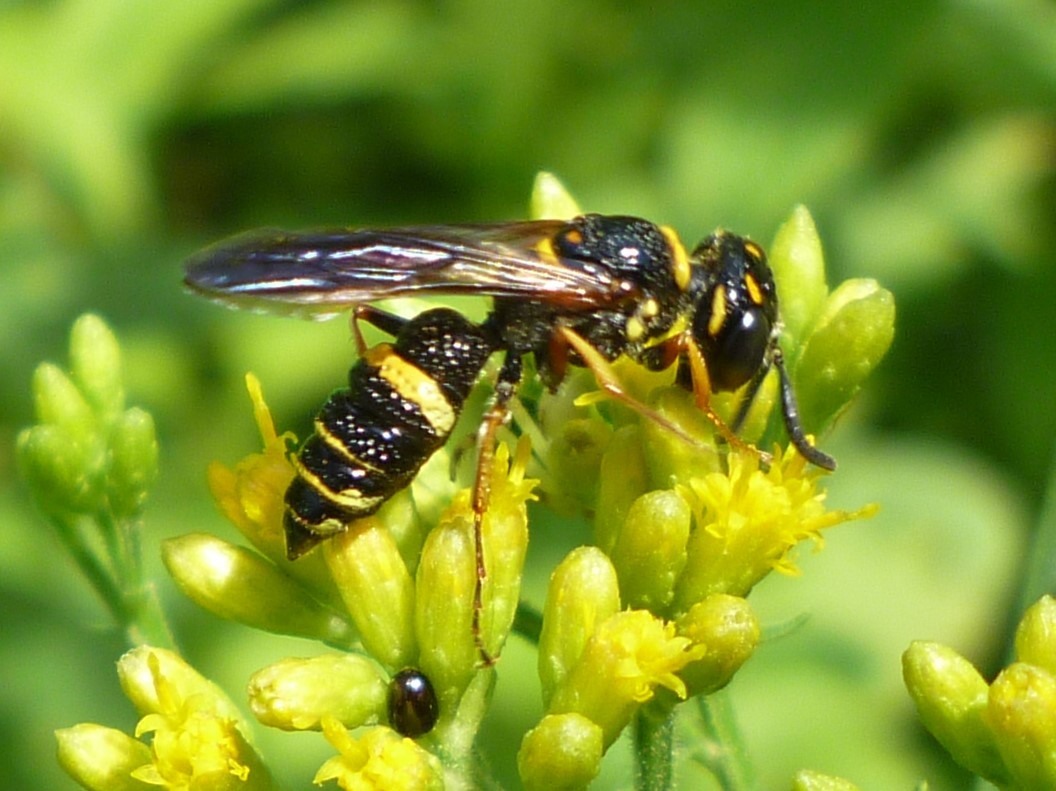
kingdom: Animalia
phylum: Arthropoda
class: Insecta
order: Hymenoptera
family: Crabronidae
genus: Philanthus
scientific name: Philanthus gibbosus
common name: Humped beewolf
